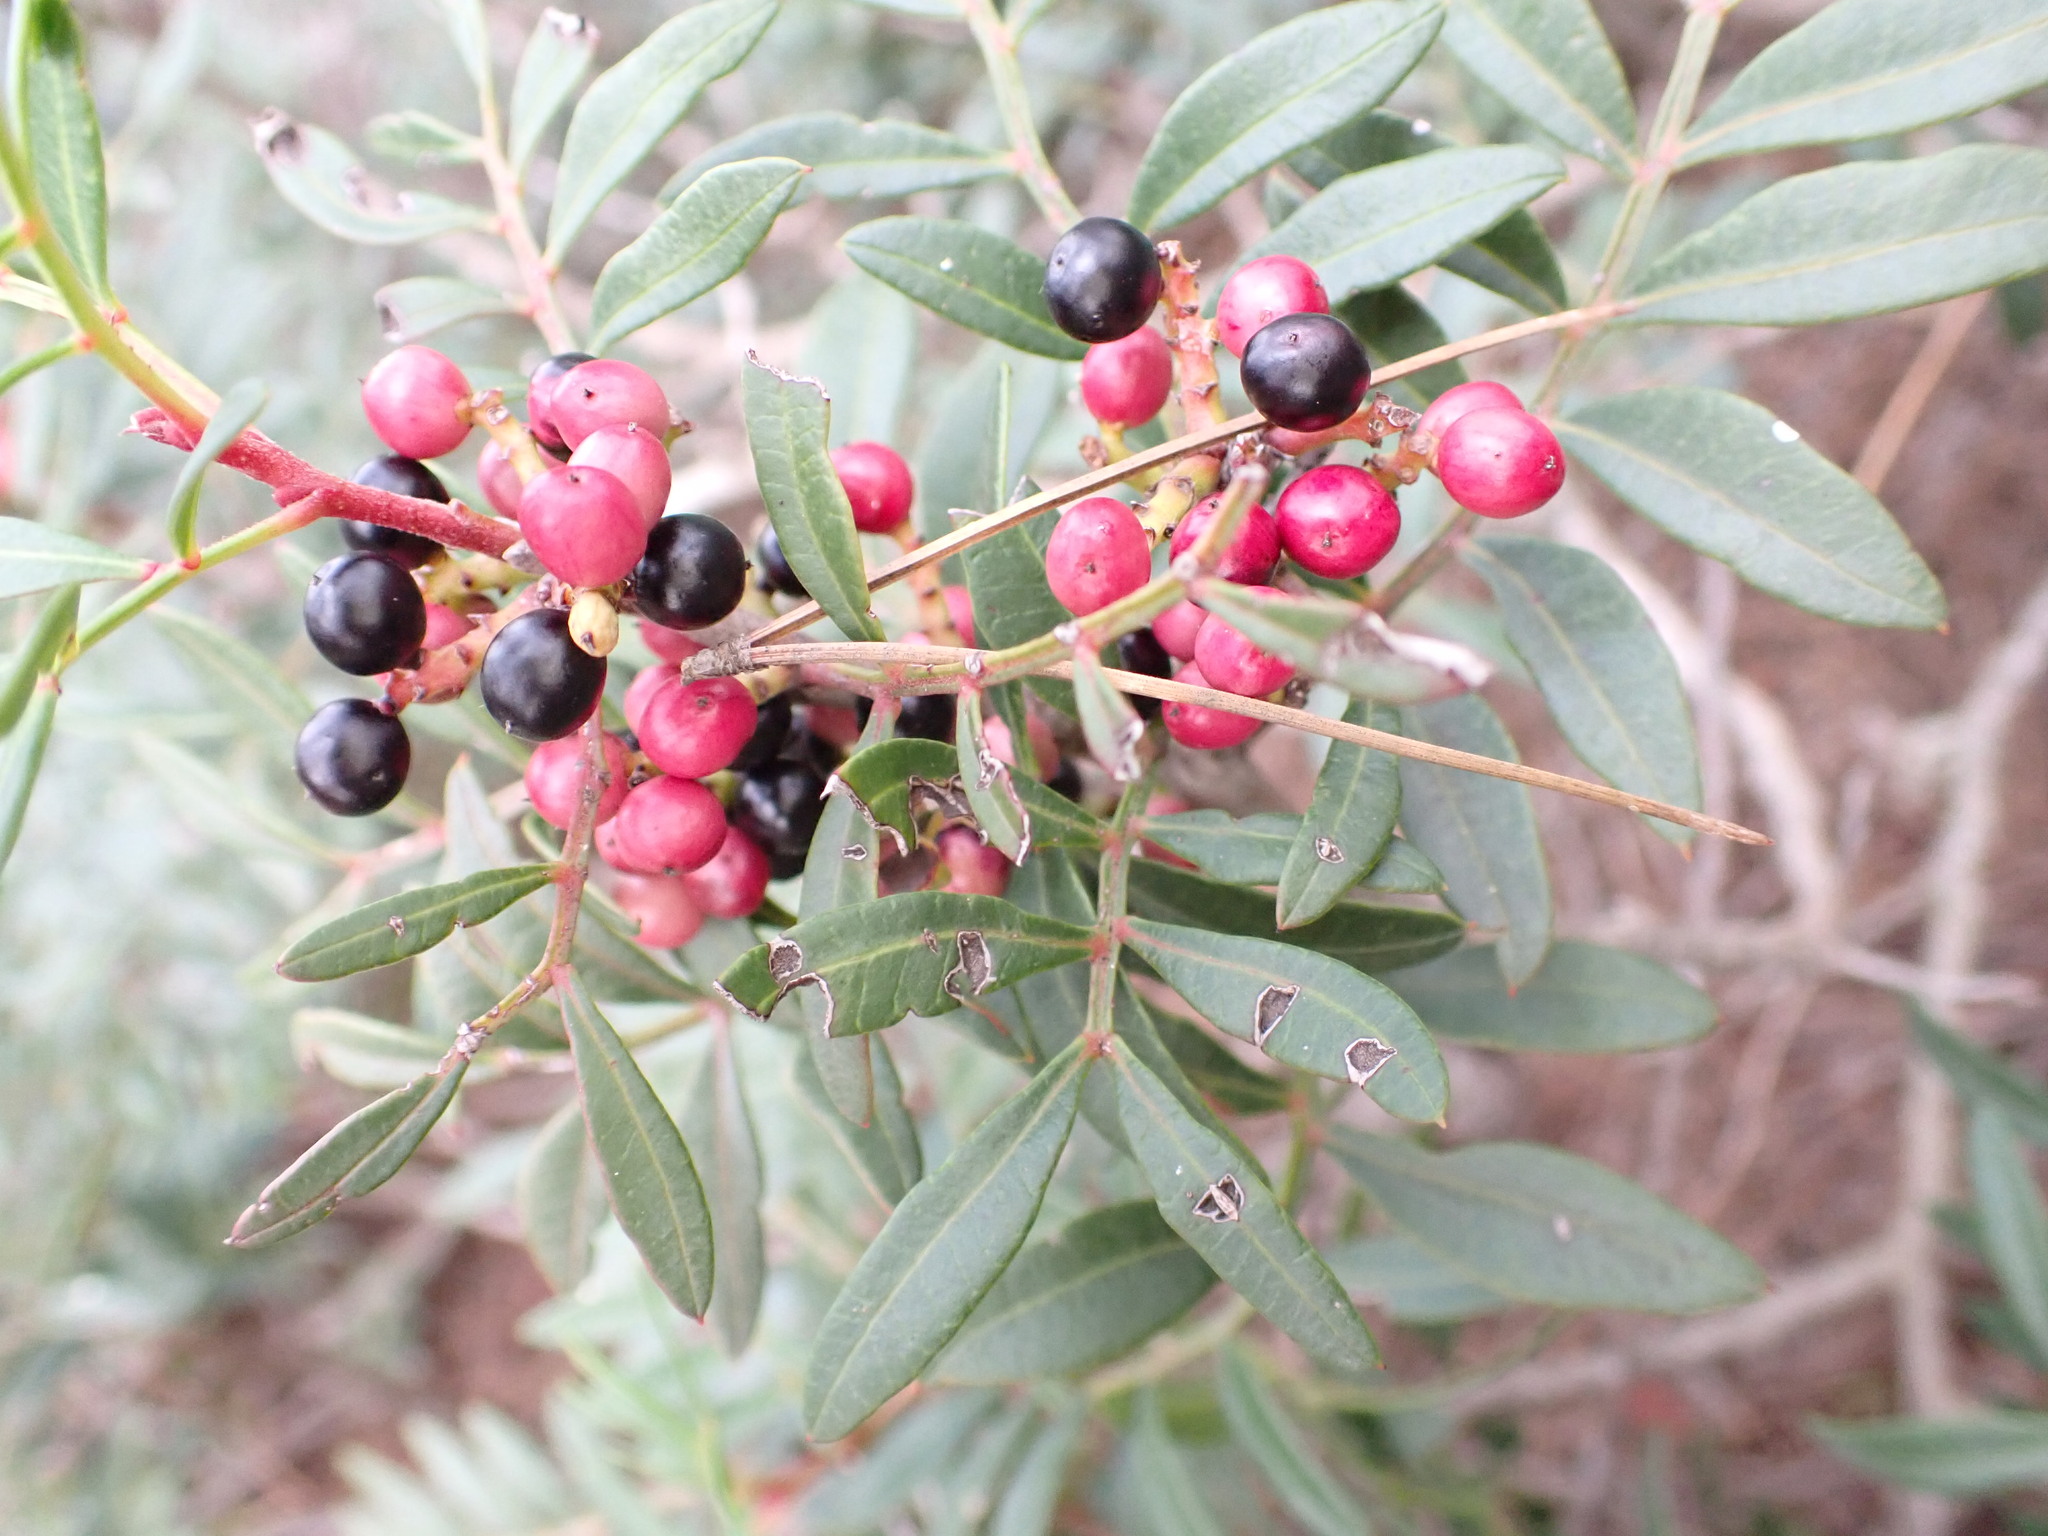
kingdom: Plantae
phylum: Tracheophyta
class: Magnoliopsida
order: Sapindales
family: Anacardiaceae
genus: Pistacia
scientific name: Pistacia lentiscus
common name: Lentisk
